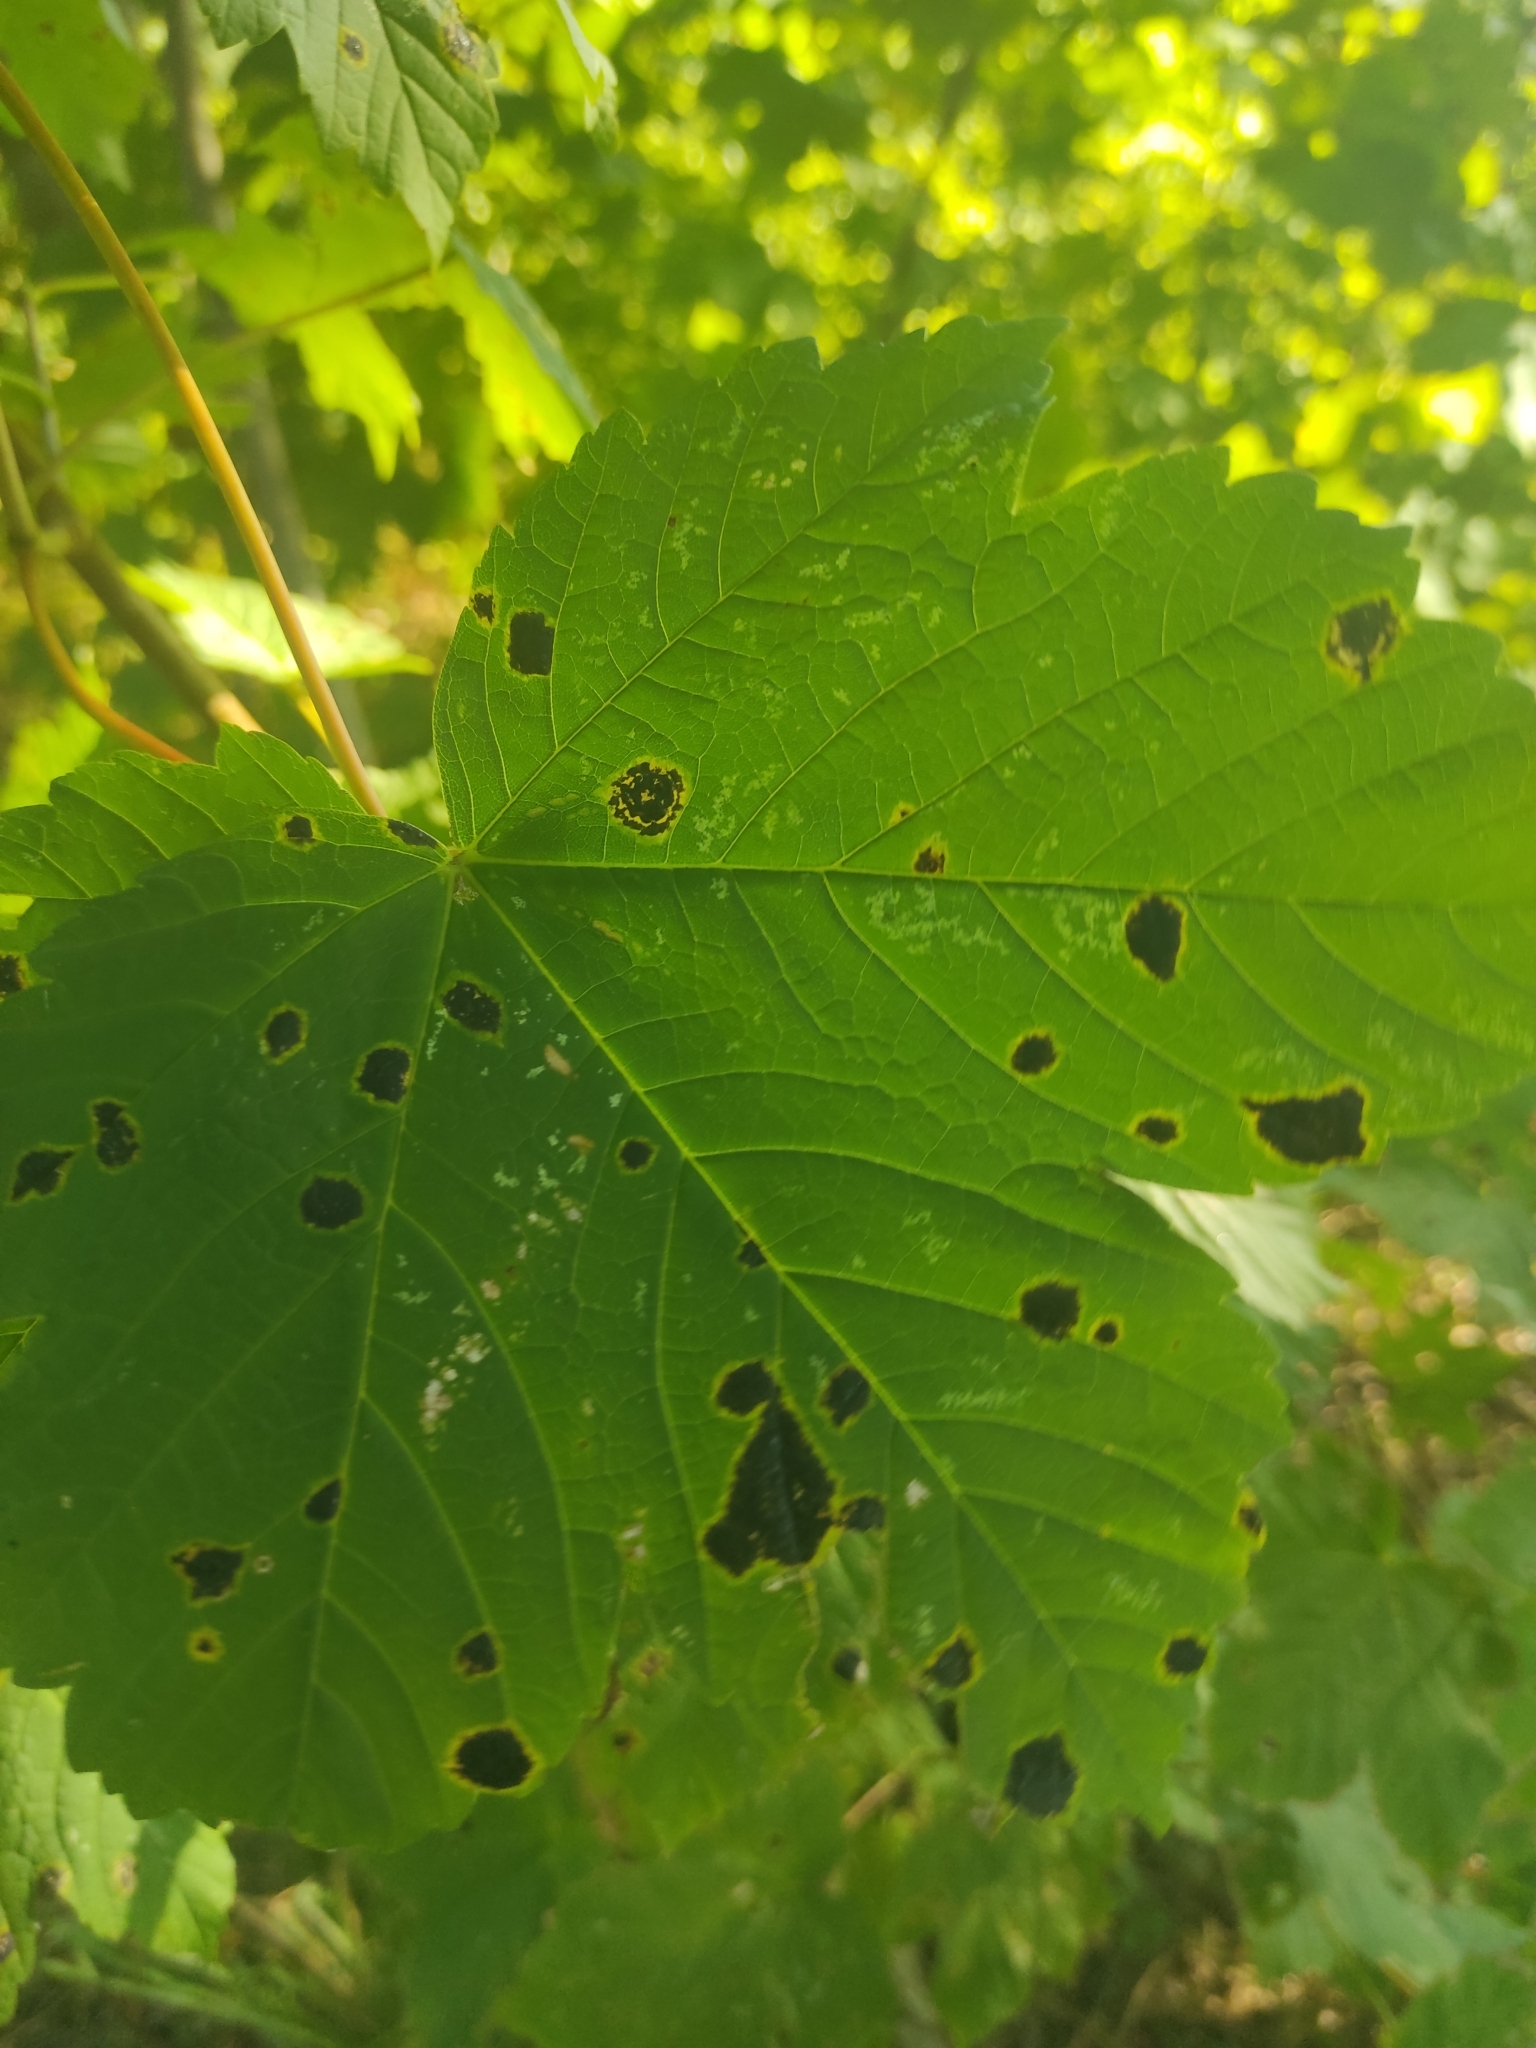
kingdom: Fungi
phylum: Ascomycota
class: Leotiomycetes
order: Rhytismatales
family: Rhytismataceae
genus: Rhytisma
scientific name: Rhytisma acerinum
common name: European tar spot
